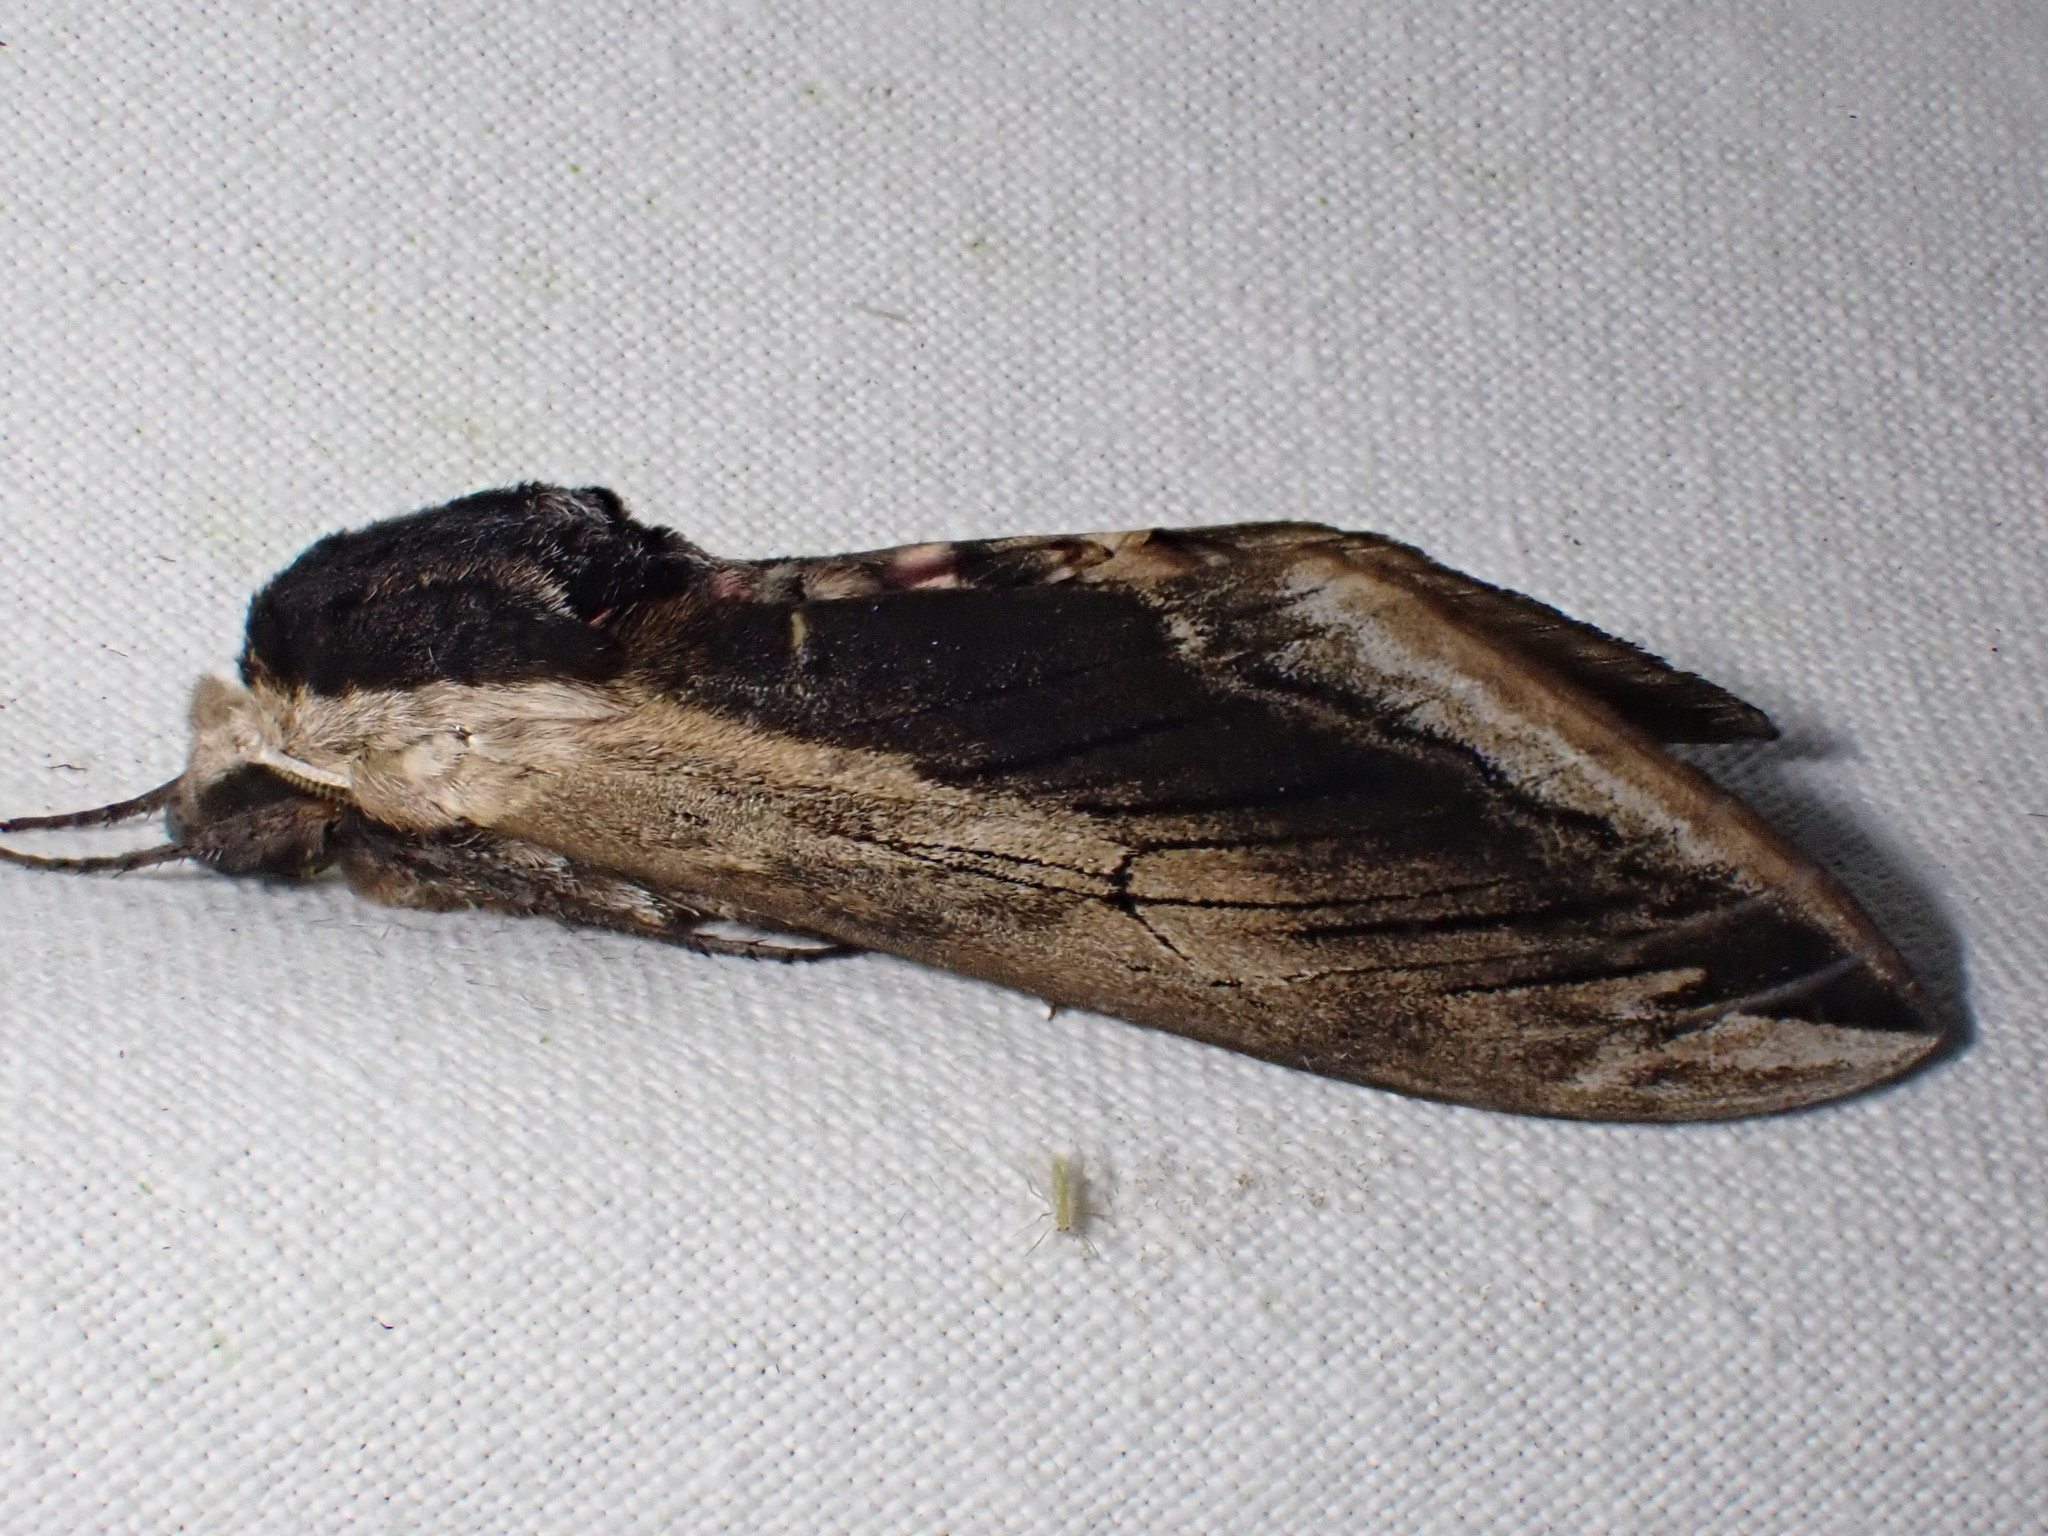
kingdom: Animalia
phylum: Arthropoda
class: Insecta
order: Lepidoptera
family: Sphingidae
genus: Sphinx
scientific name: Sphinx ligustri
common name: Privet hawk-moth
